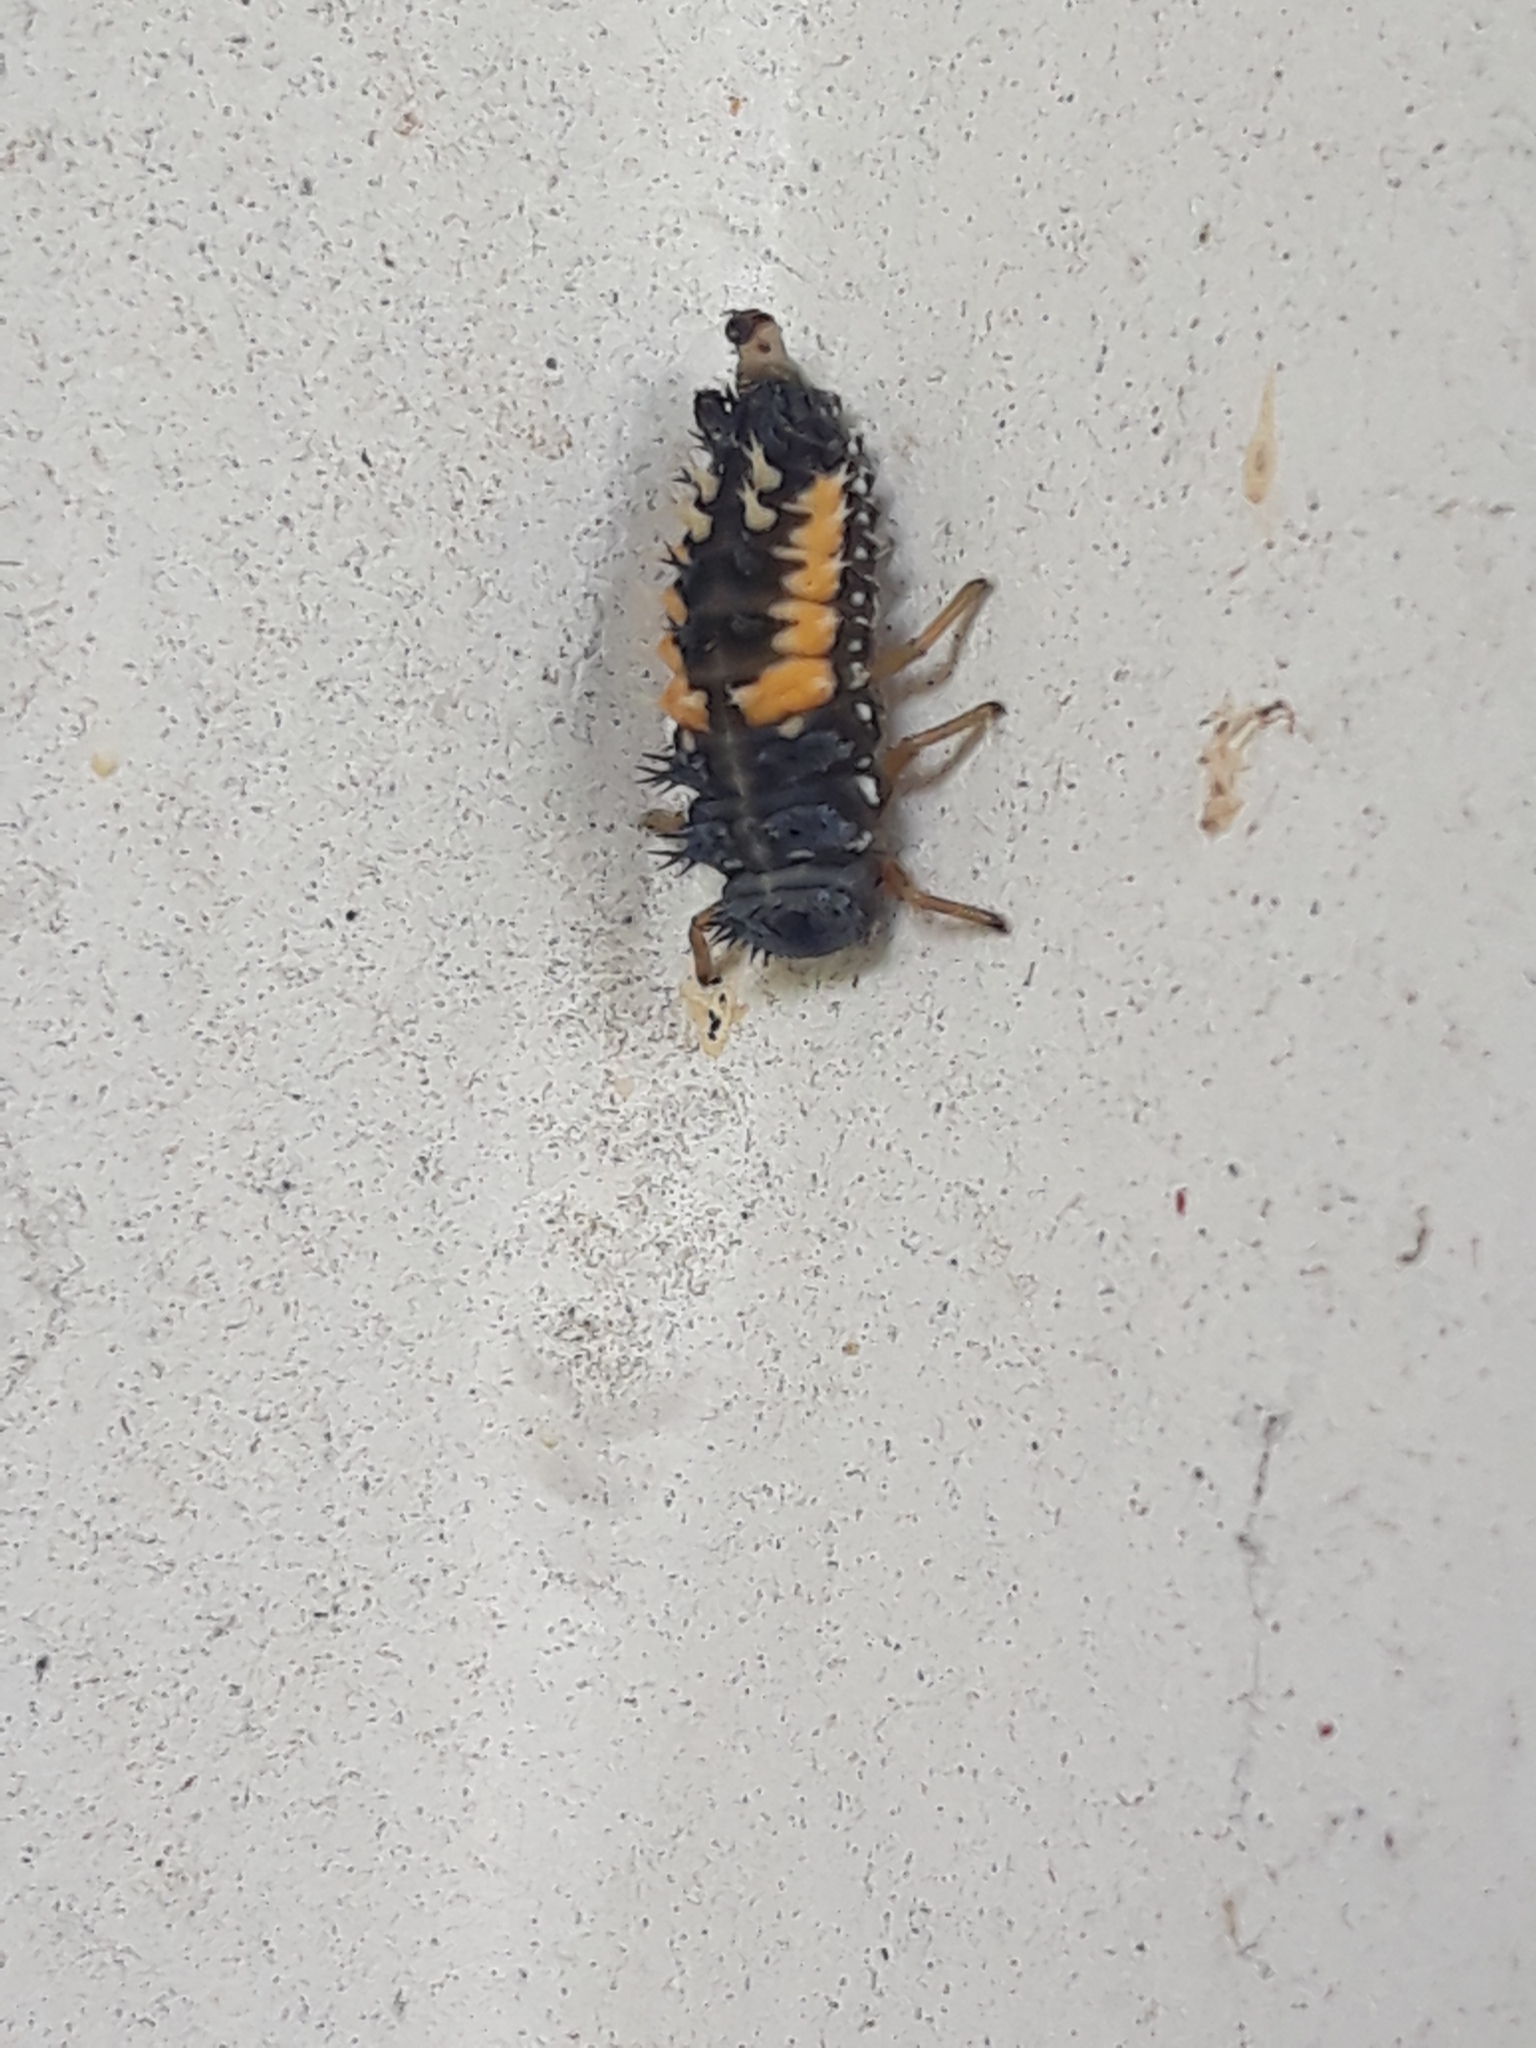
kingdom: Animalia
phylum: Arthropoda
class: Insecta
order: Coleoptera
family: Coccinellidae
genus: Harmonia
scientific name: Harmonia axyridis
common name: Harlequin ladybird
